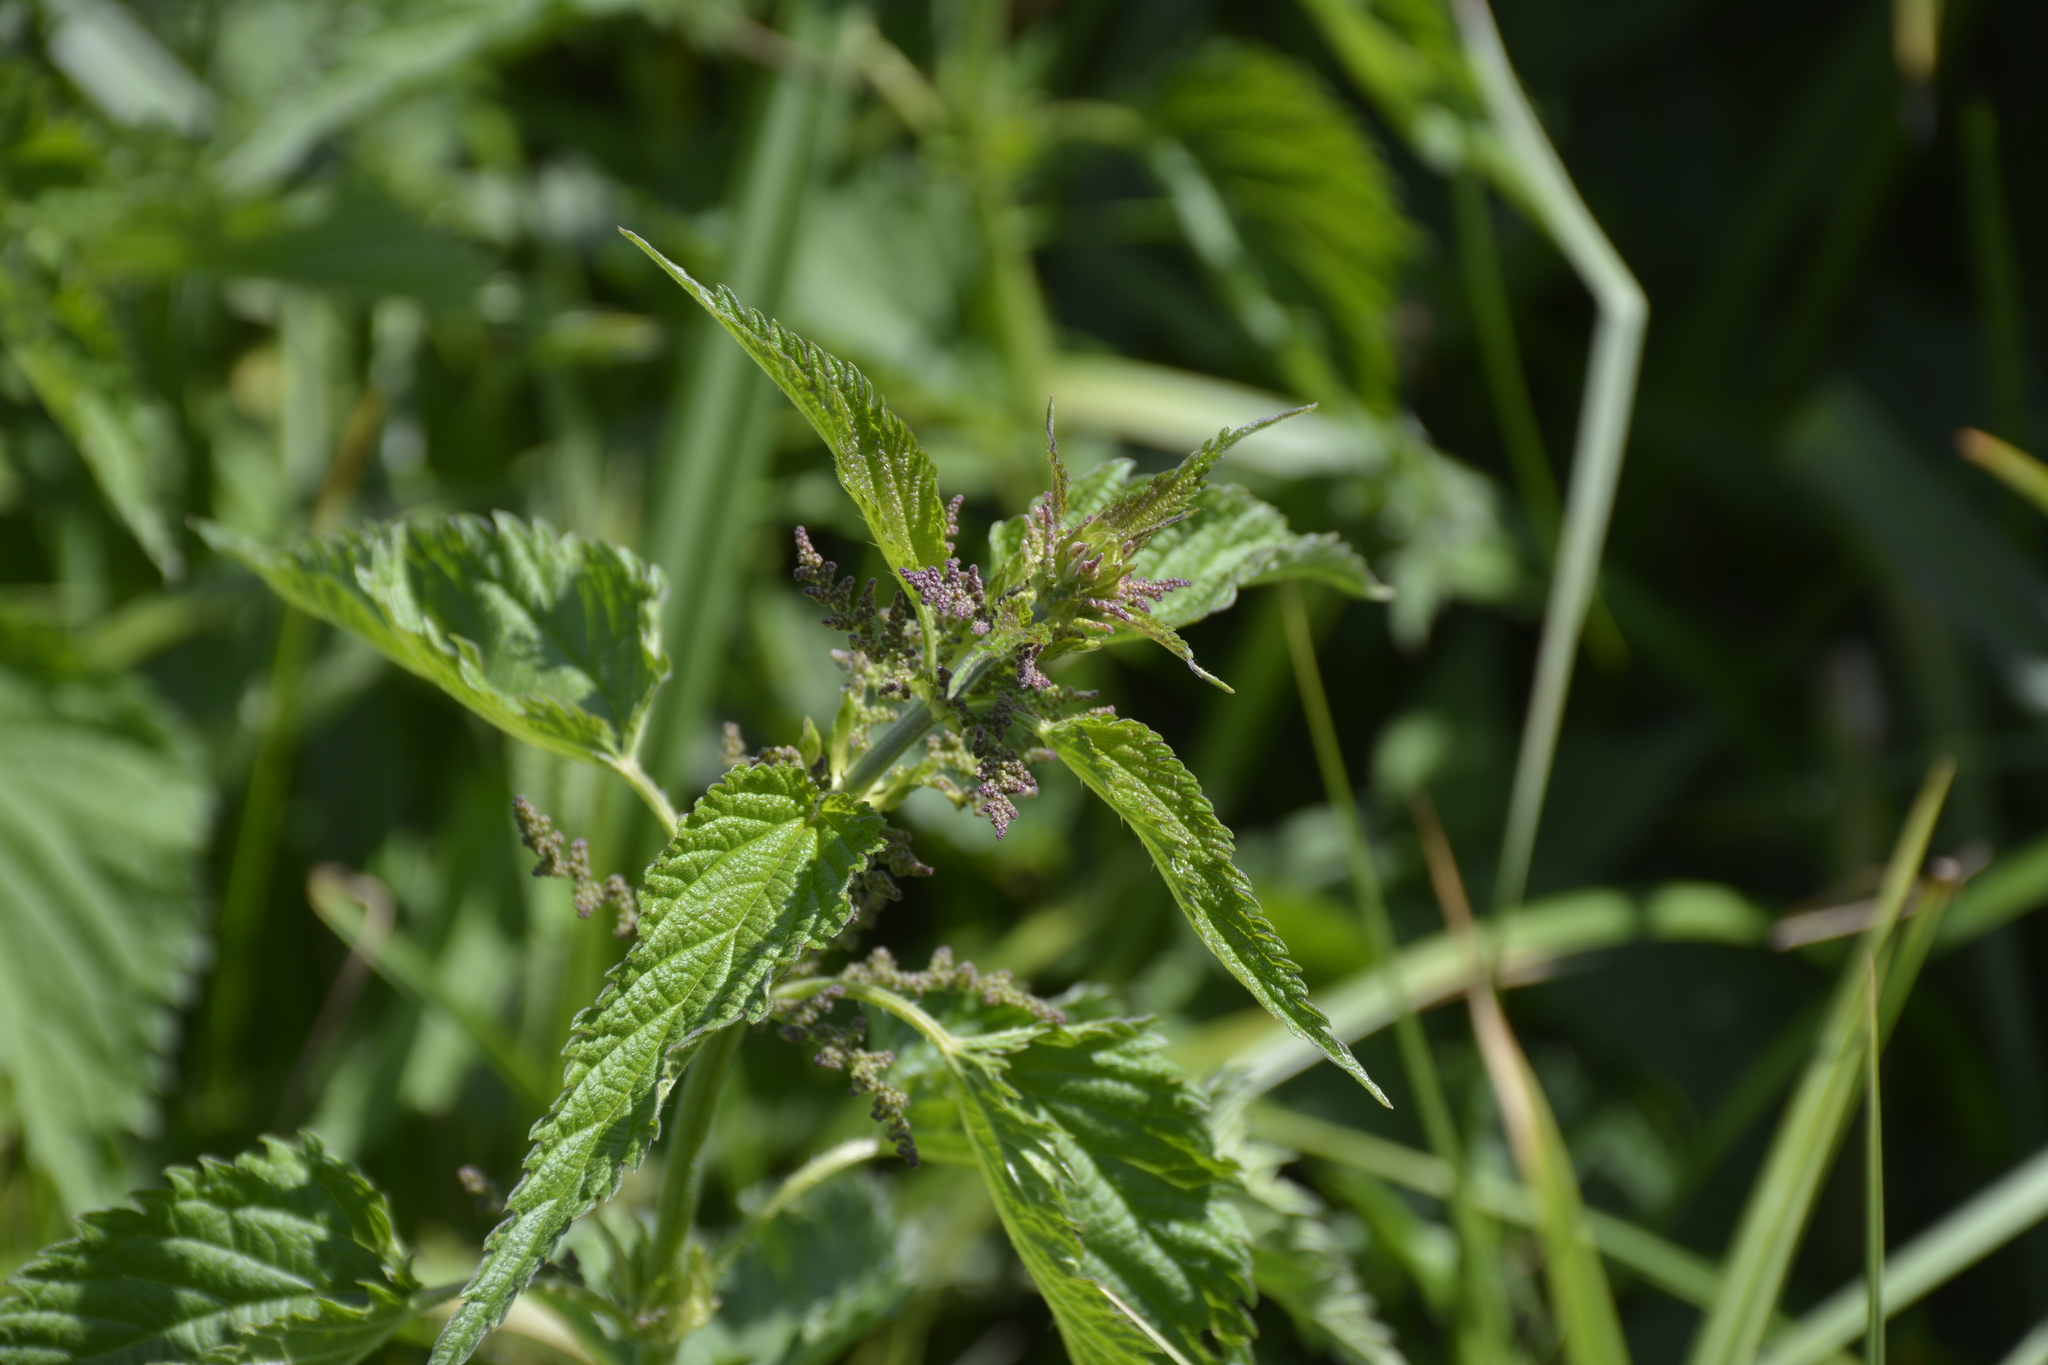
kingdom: Plantae
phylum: Tracheophyta
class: Magnoliopsida
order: Rosales
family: Urticaceae
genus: Urtica
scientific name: Urtica dioica
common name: Common nettle
